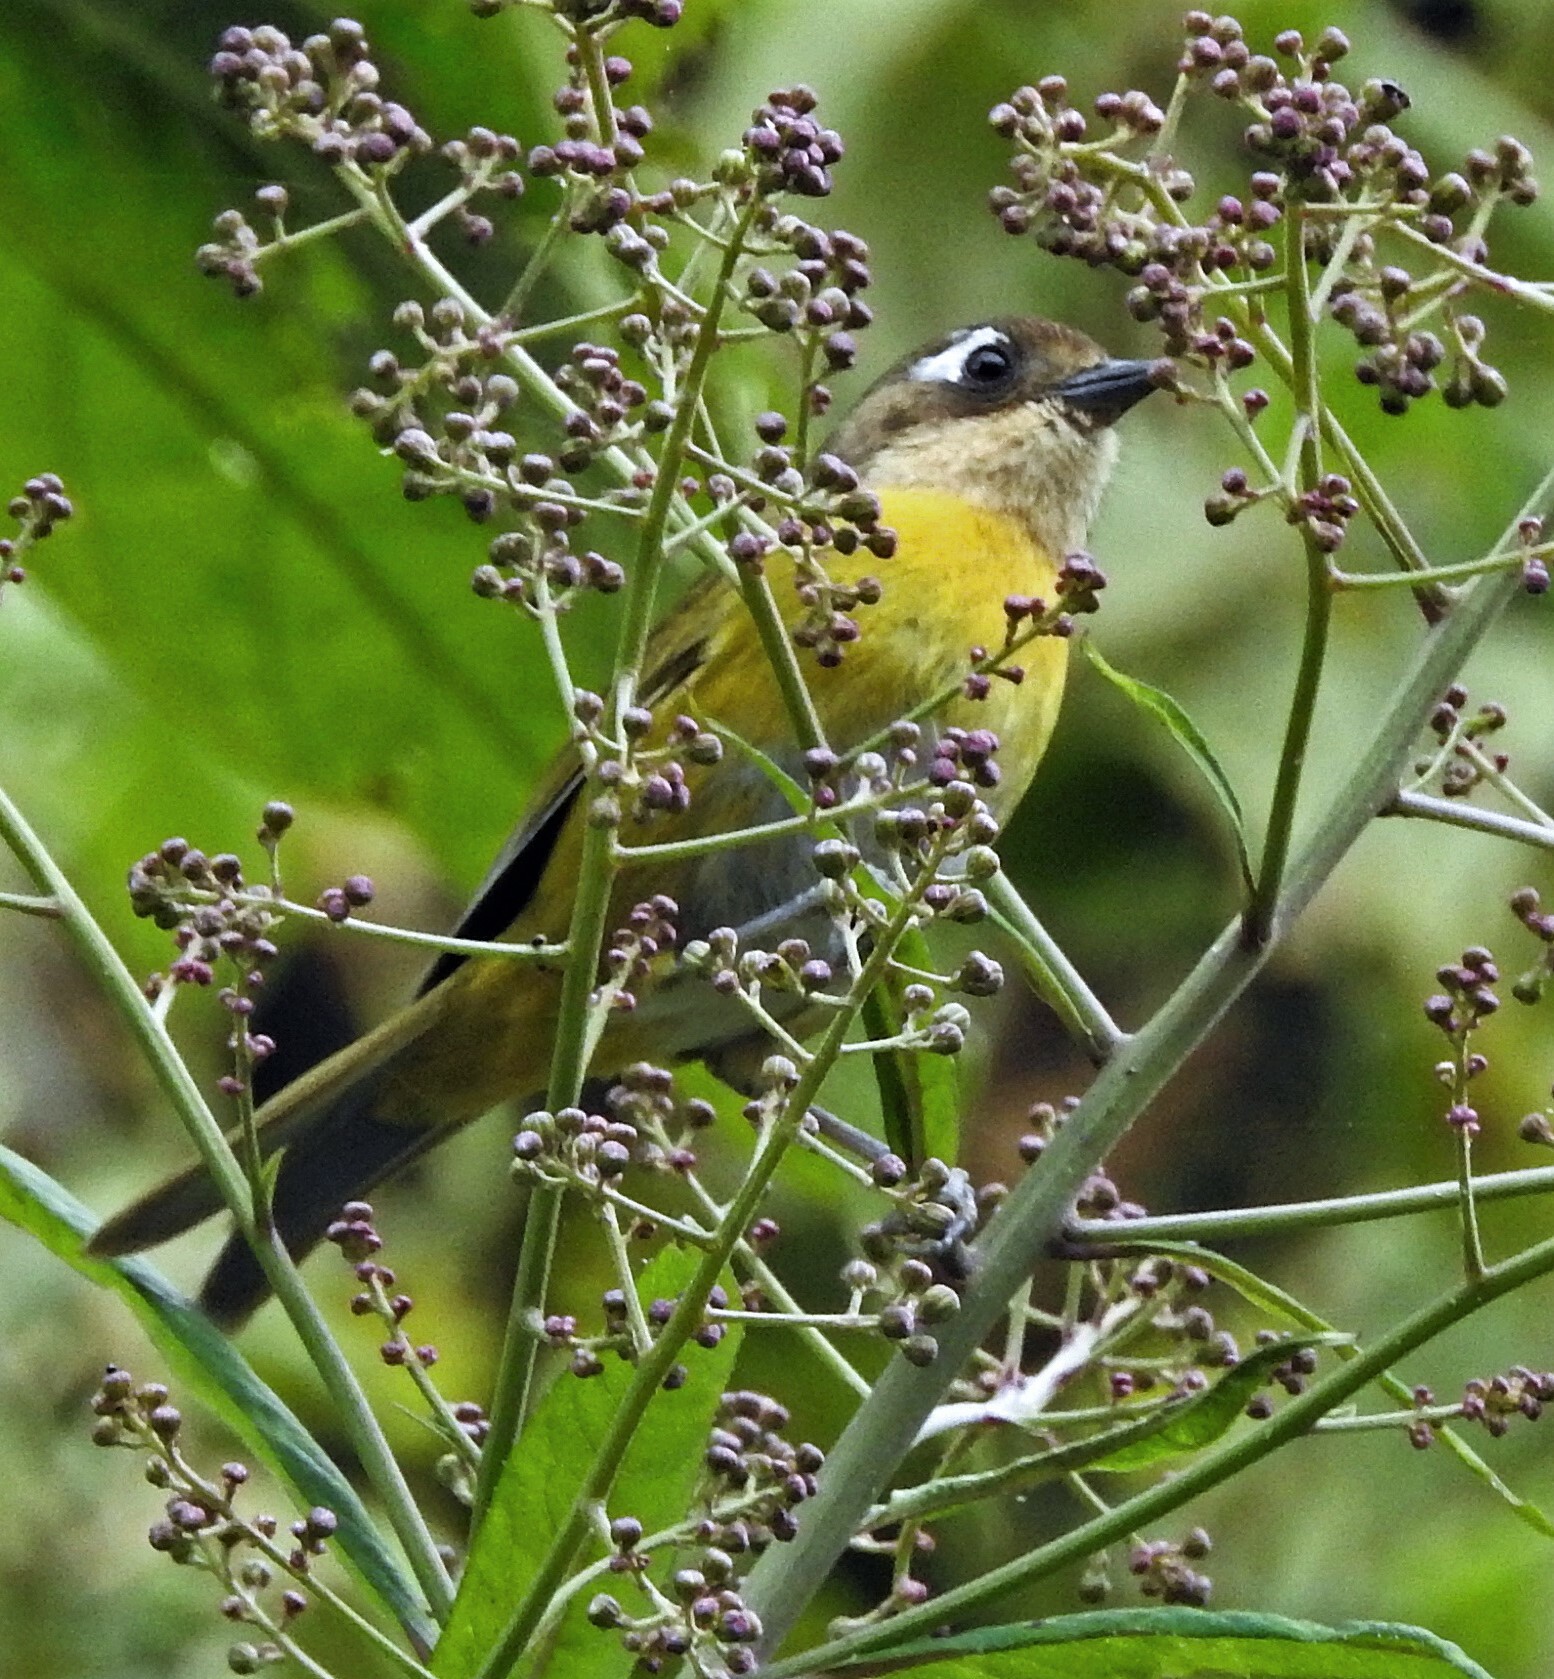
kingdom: Animalia
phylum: Chordata
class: Aves
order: Passeriformes
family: Passerellidae
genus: Chlorospingus
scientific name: Chlorospingus flavopectus
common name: Common chlorospingus
